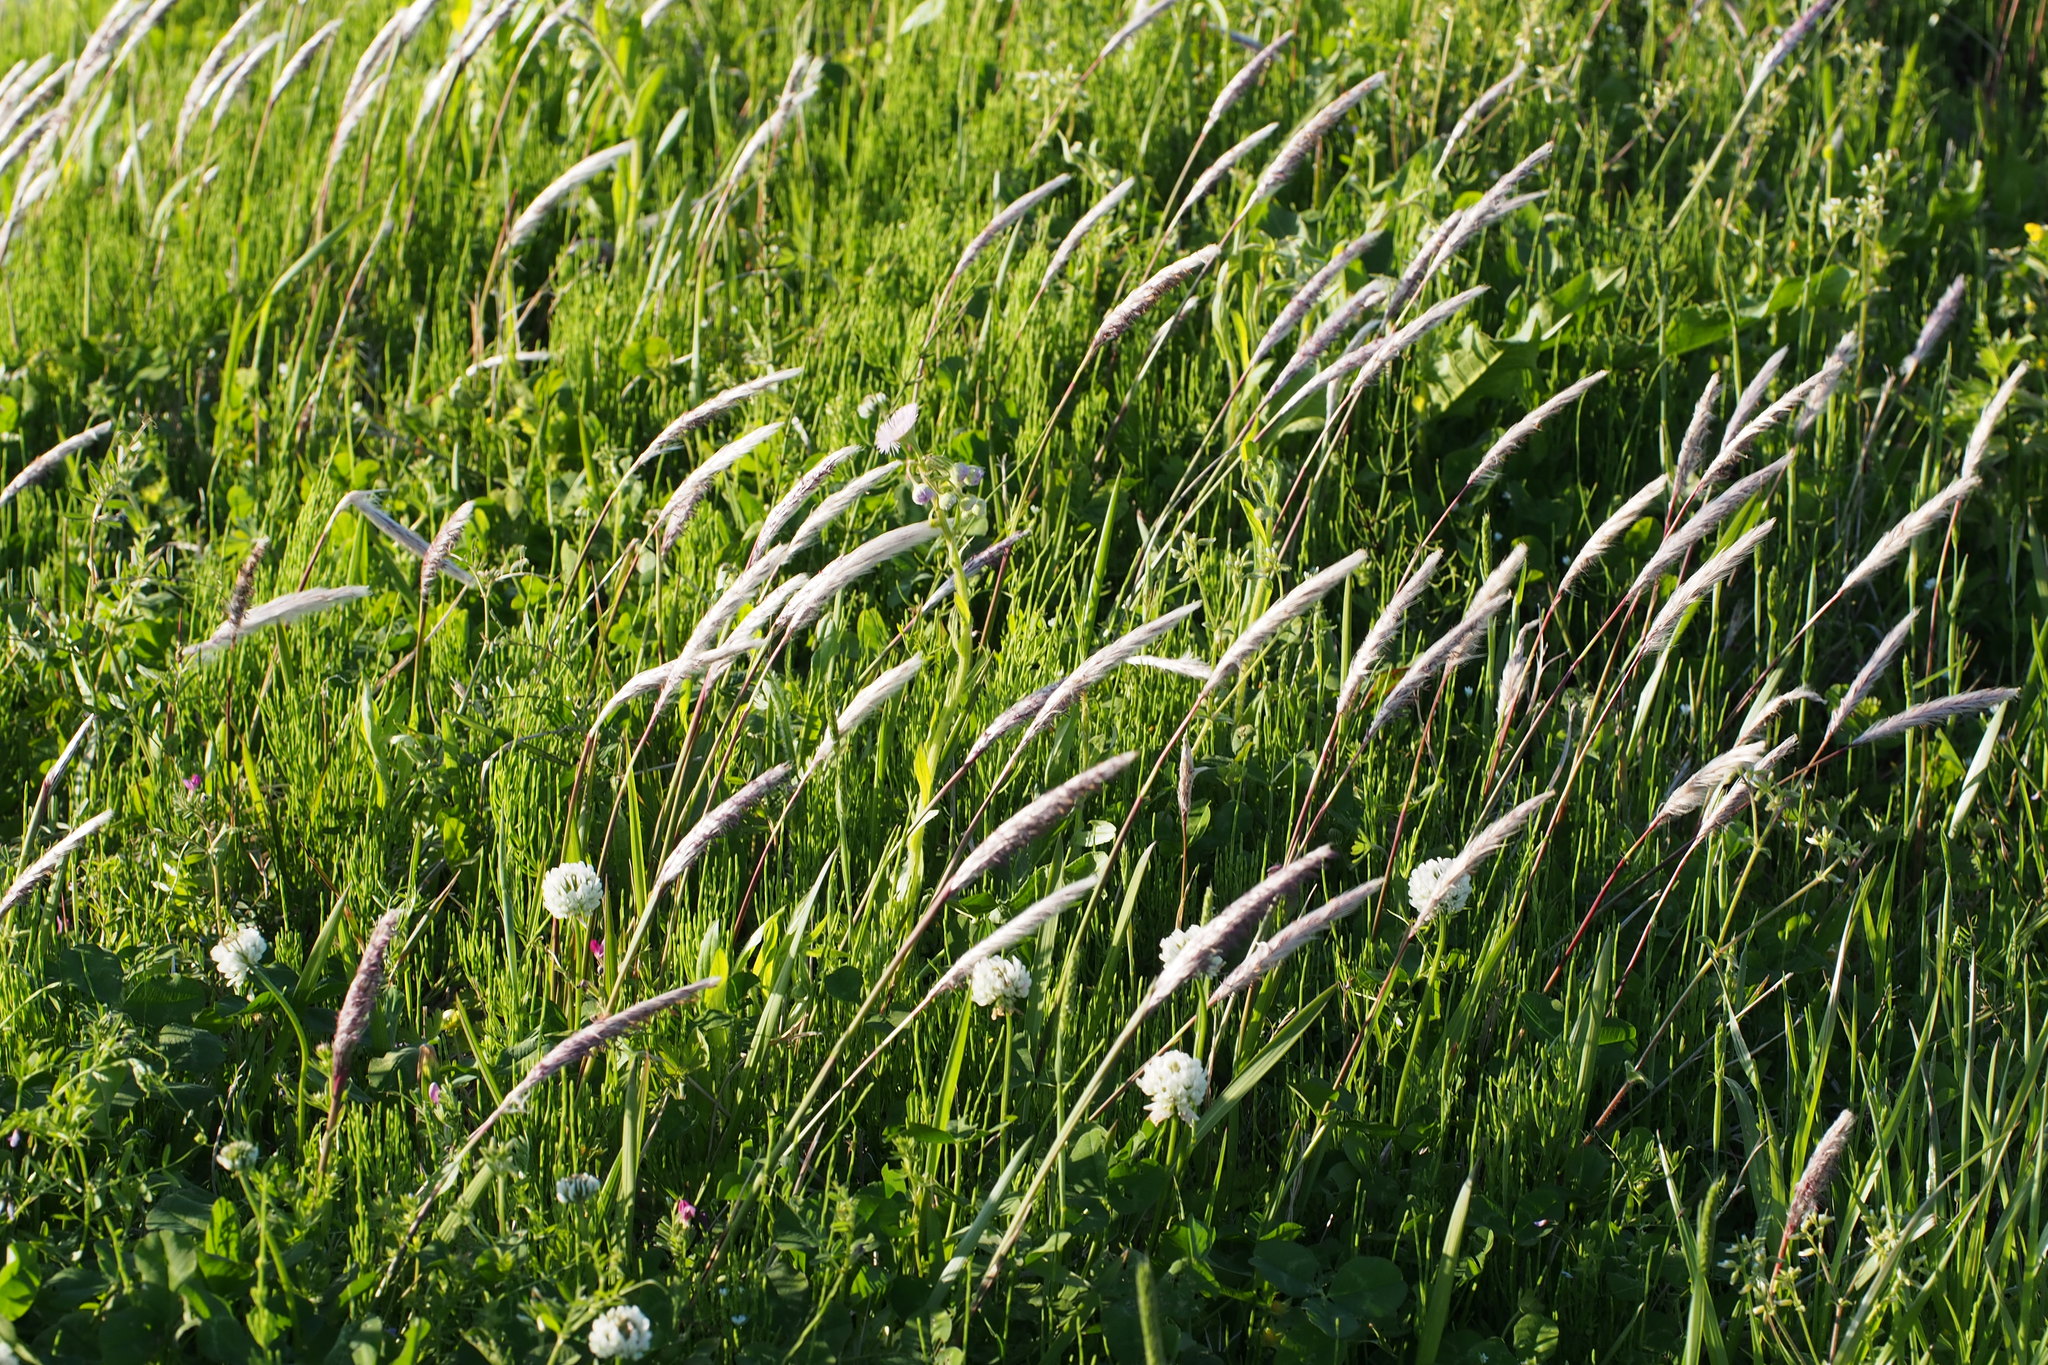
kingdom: Plantae
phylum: Tracheophyta
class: Liliopsida
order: Poales
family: Poaceae
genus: Imperata
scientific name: Imperata cylindrica
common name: Cogongrass
